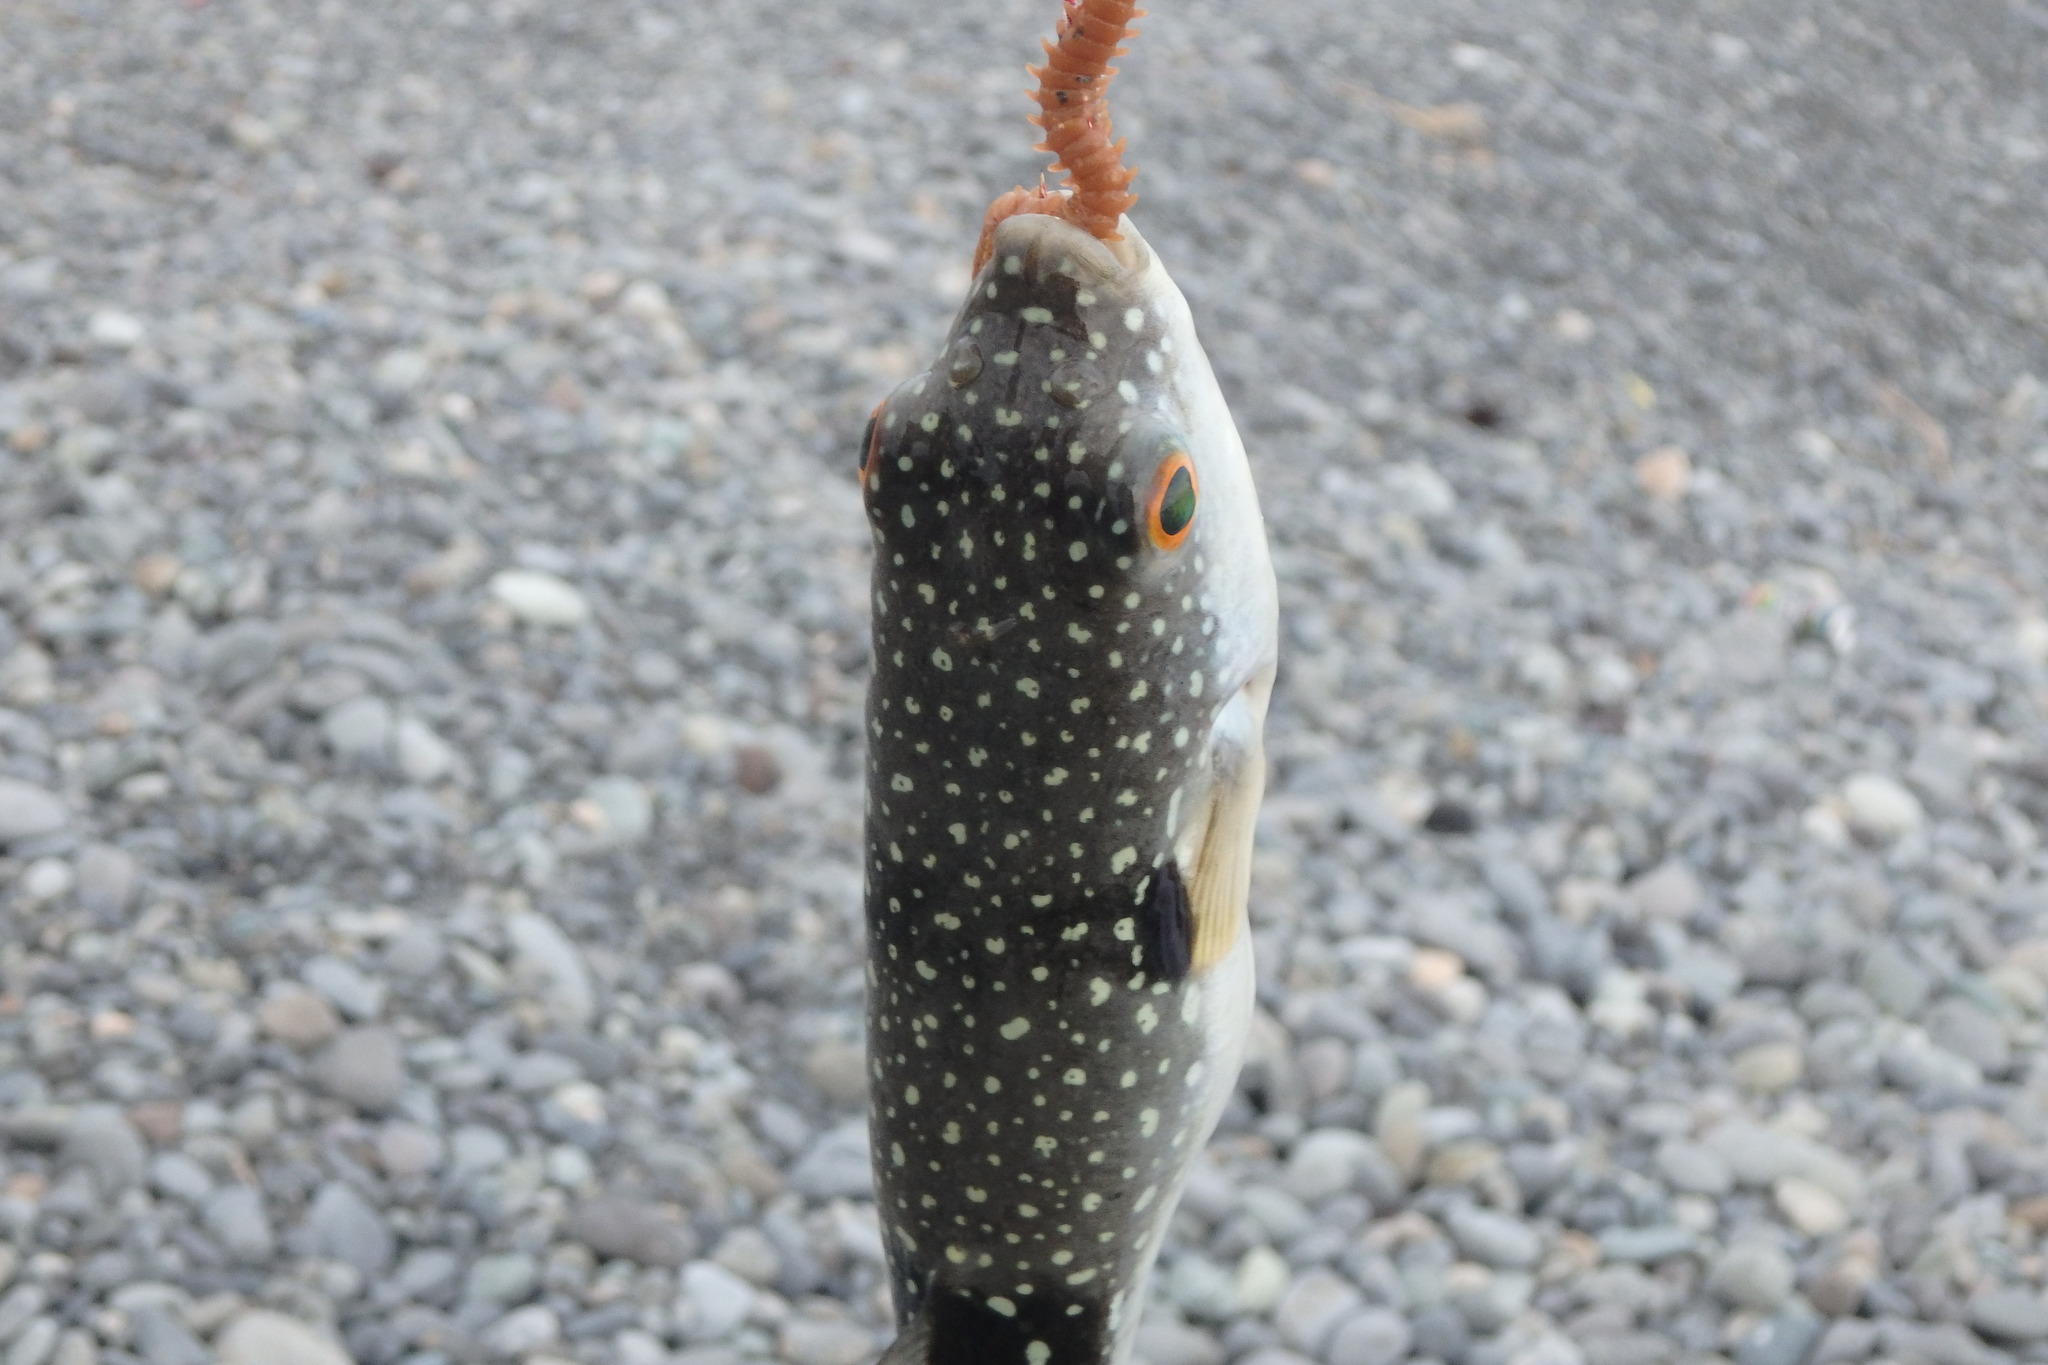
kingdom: Animalia
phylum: Chordata
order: Tetraodontiformes
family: Tetraodontidae
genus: Takifugu
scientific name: Takifugu alboplumbeus
